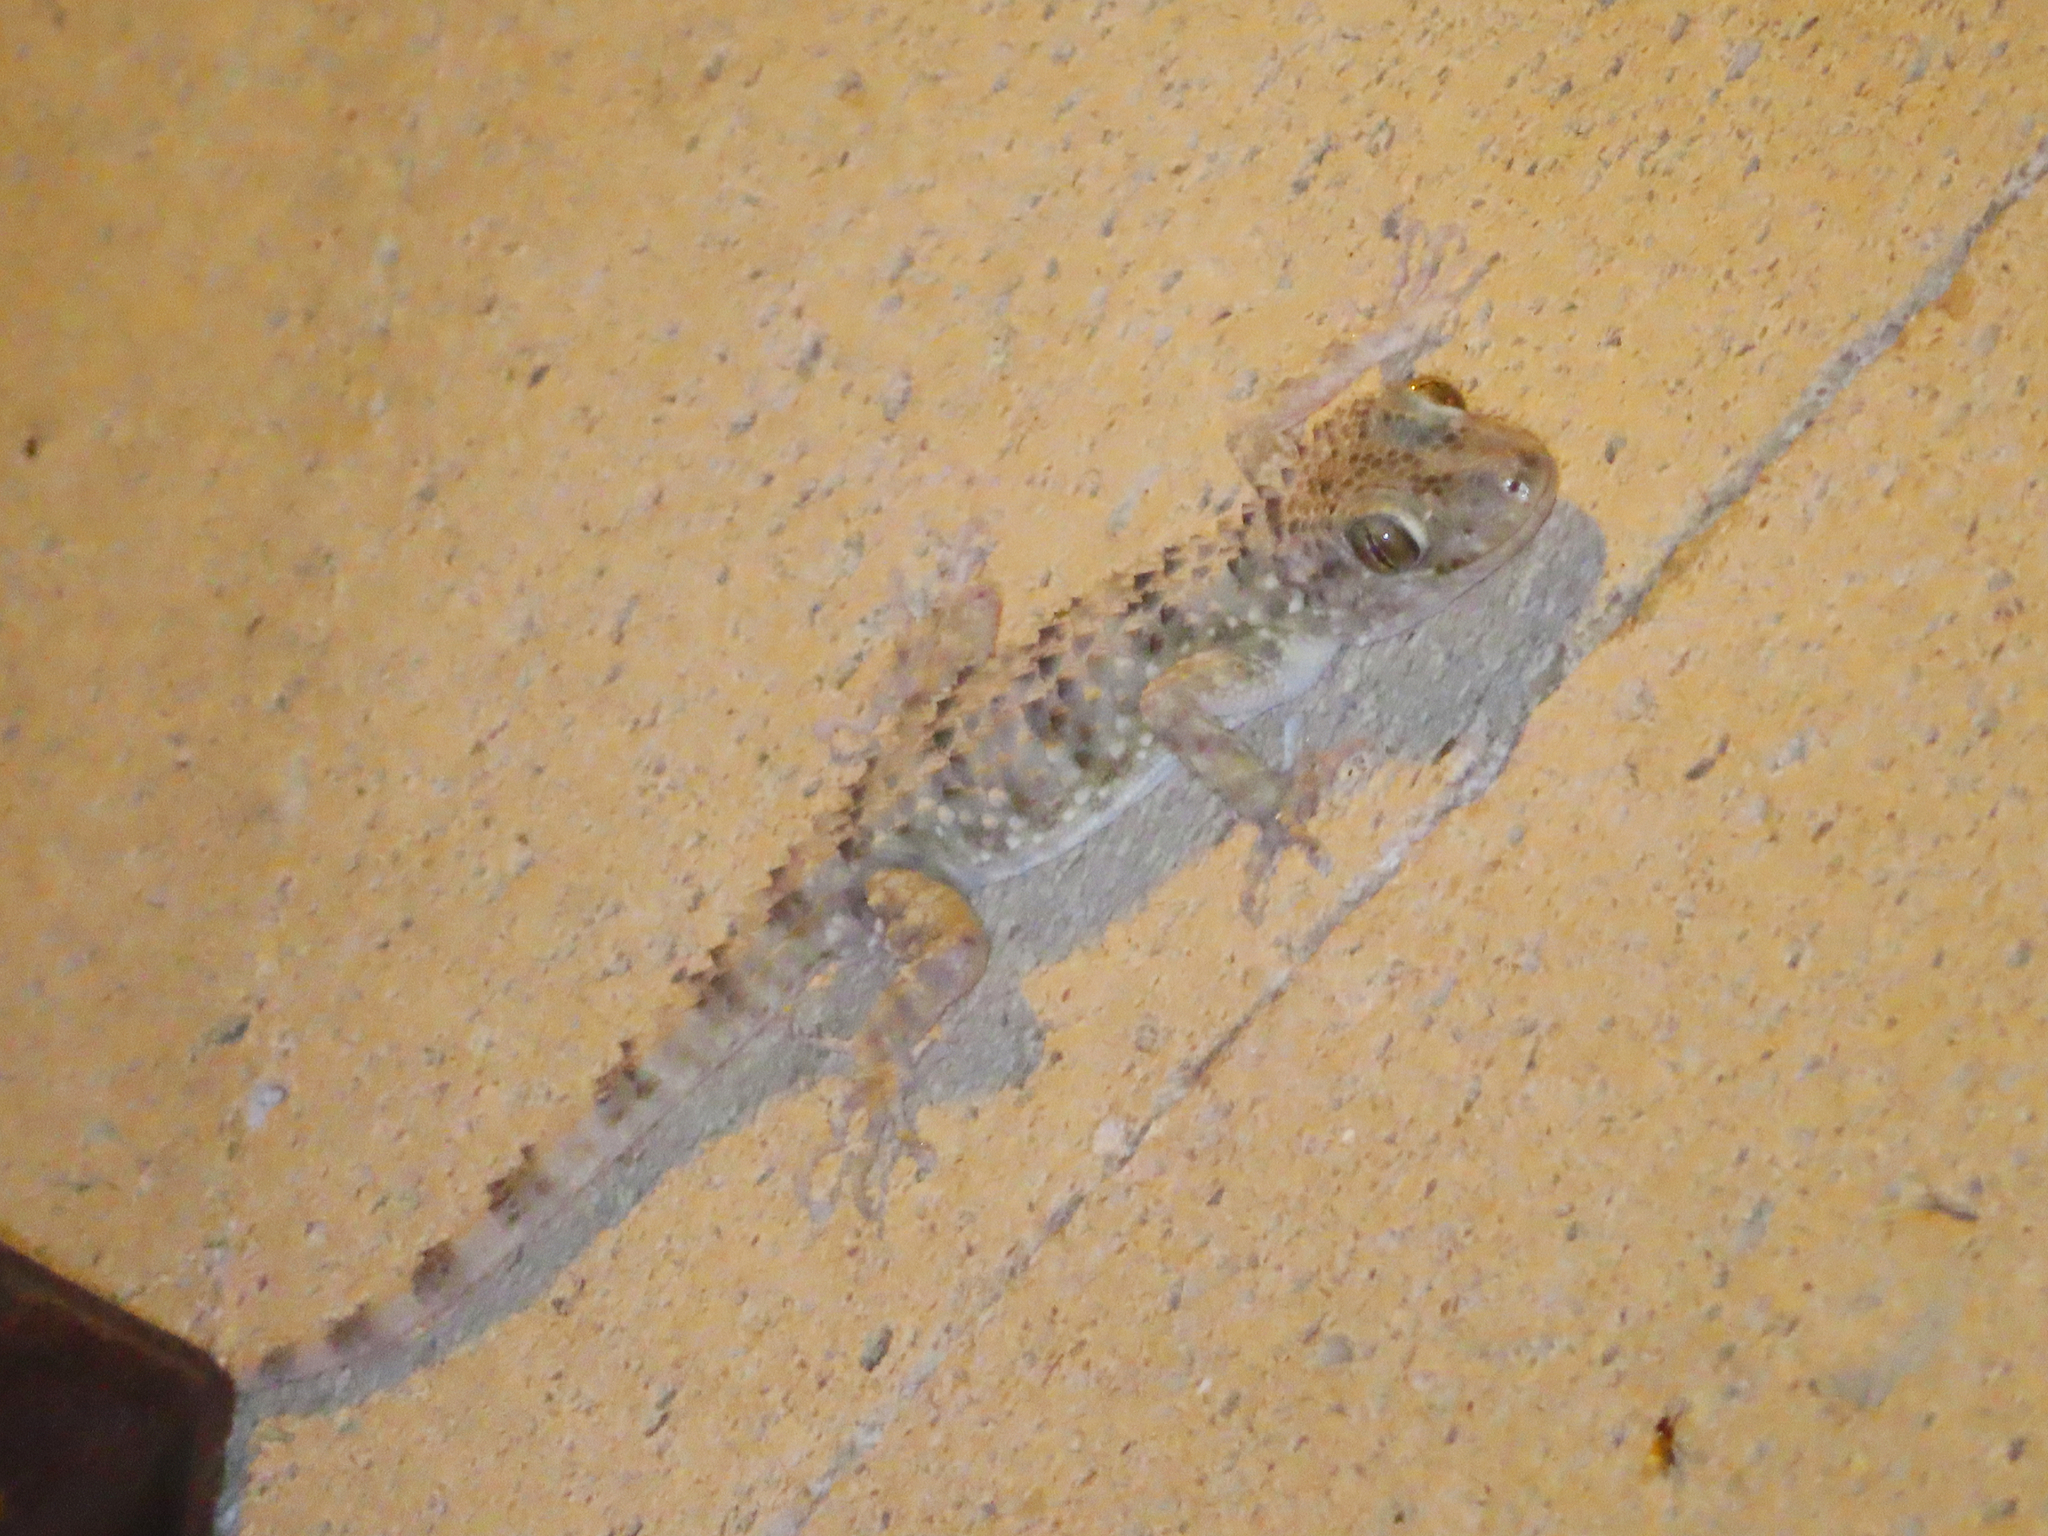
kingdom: Animalia
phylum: Chordata
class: Squamata
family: Gekkonidae
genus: Tenuidactylus
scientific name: Tenuidactylus caspius
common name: Caspian bent-toed gecko
